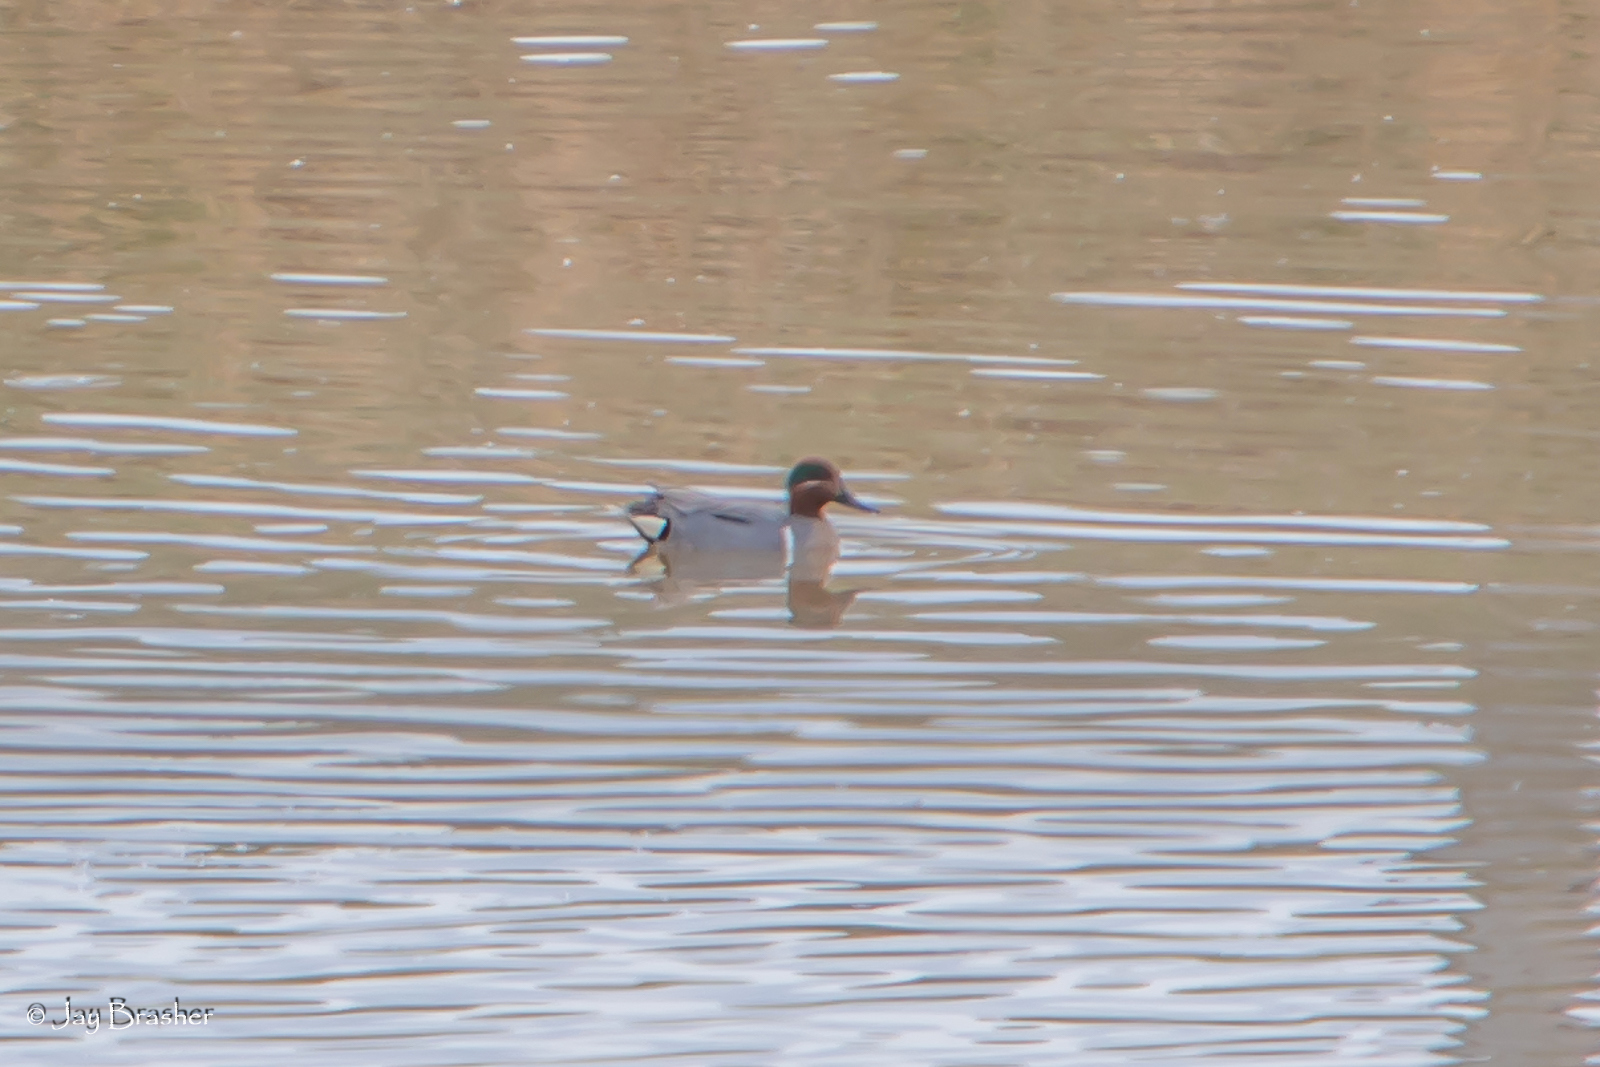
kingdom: Animalia
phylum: Chordata
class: Aves
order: Anseriformes
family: Anatidae
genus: Anas
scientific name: Anas crecca
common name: Eurasian teal
